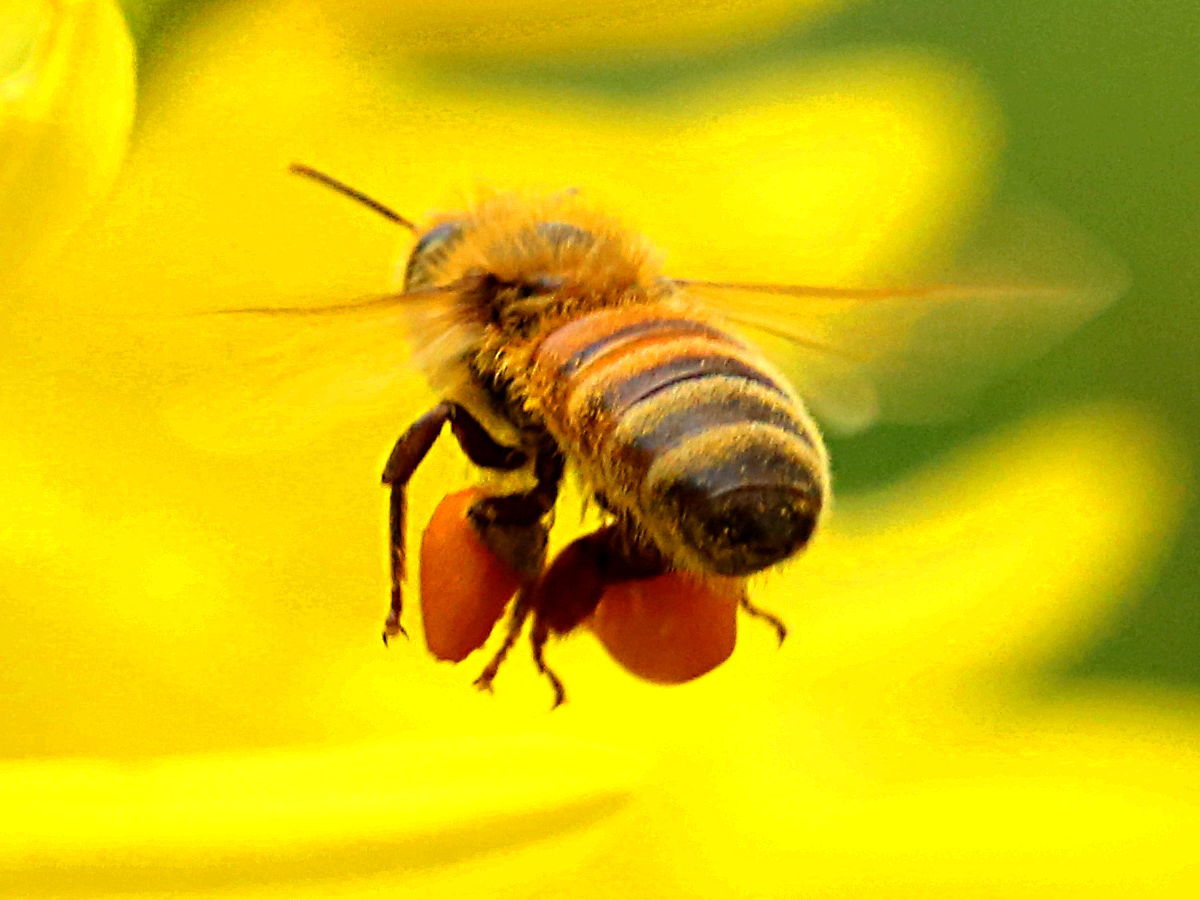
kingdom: Animalia
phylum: Arthropoda
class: Insecta
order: Hymenoptera
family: Apidae
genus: Apis
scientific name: Apis mellifera
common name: Honey bee
